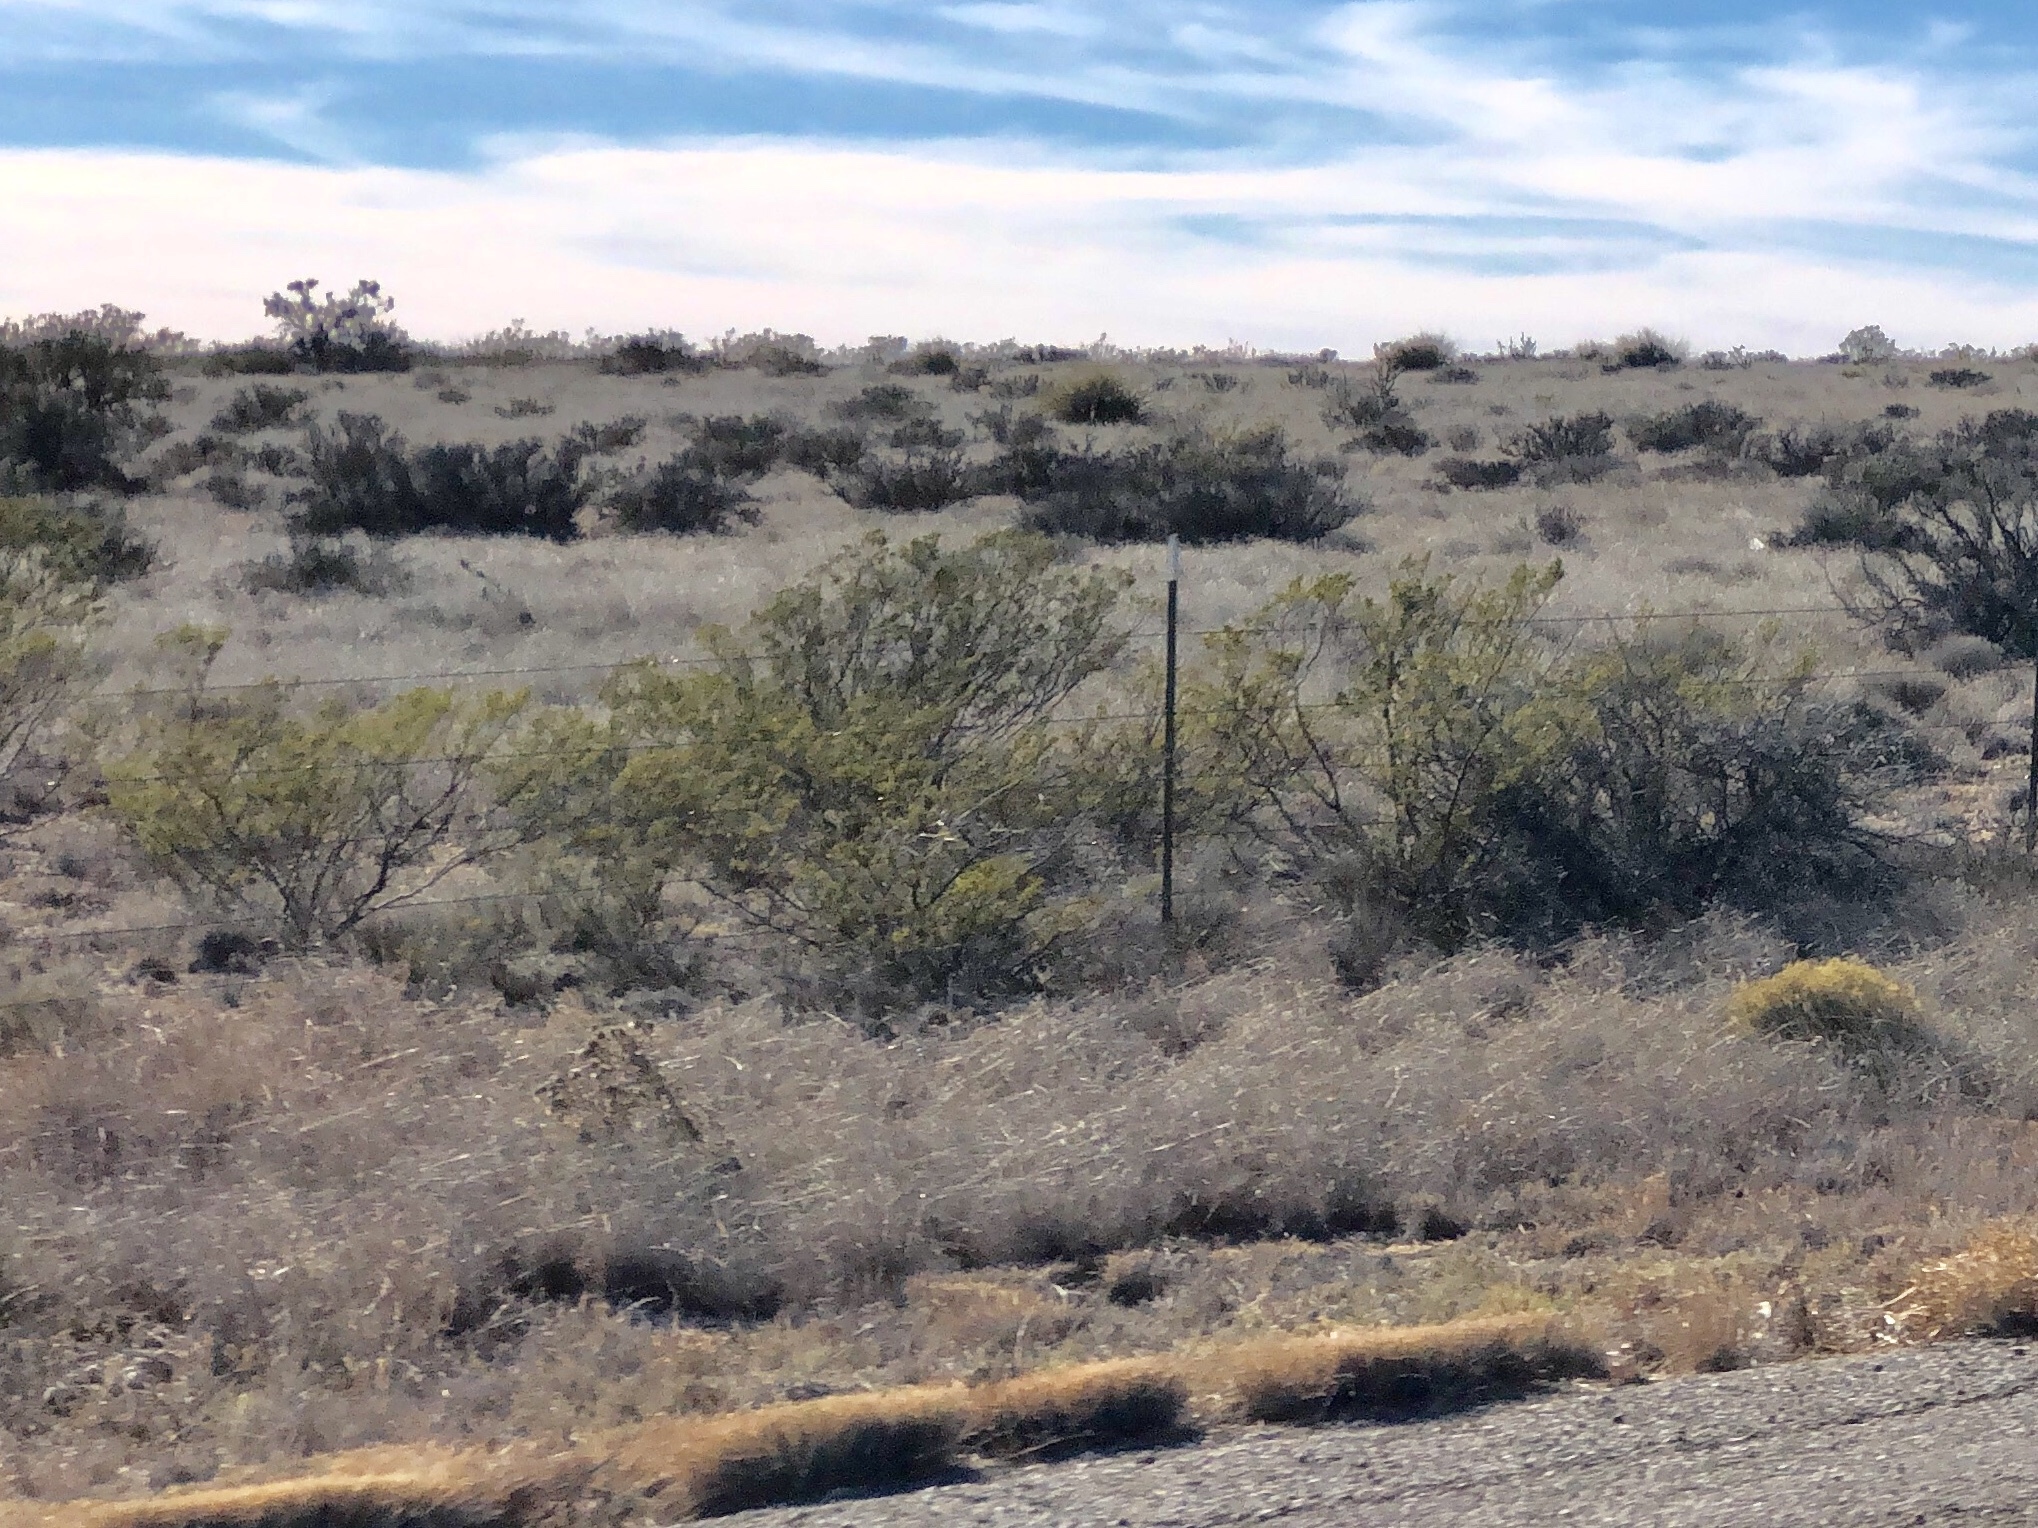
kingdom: Plantae
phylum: Tracheophyta
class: Magnoliopsida
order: Zygophyllales
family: Zygophyllaceae
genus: Larrea
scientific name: Larrea tridentata
